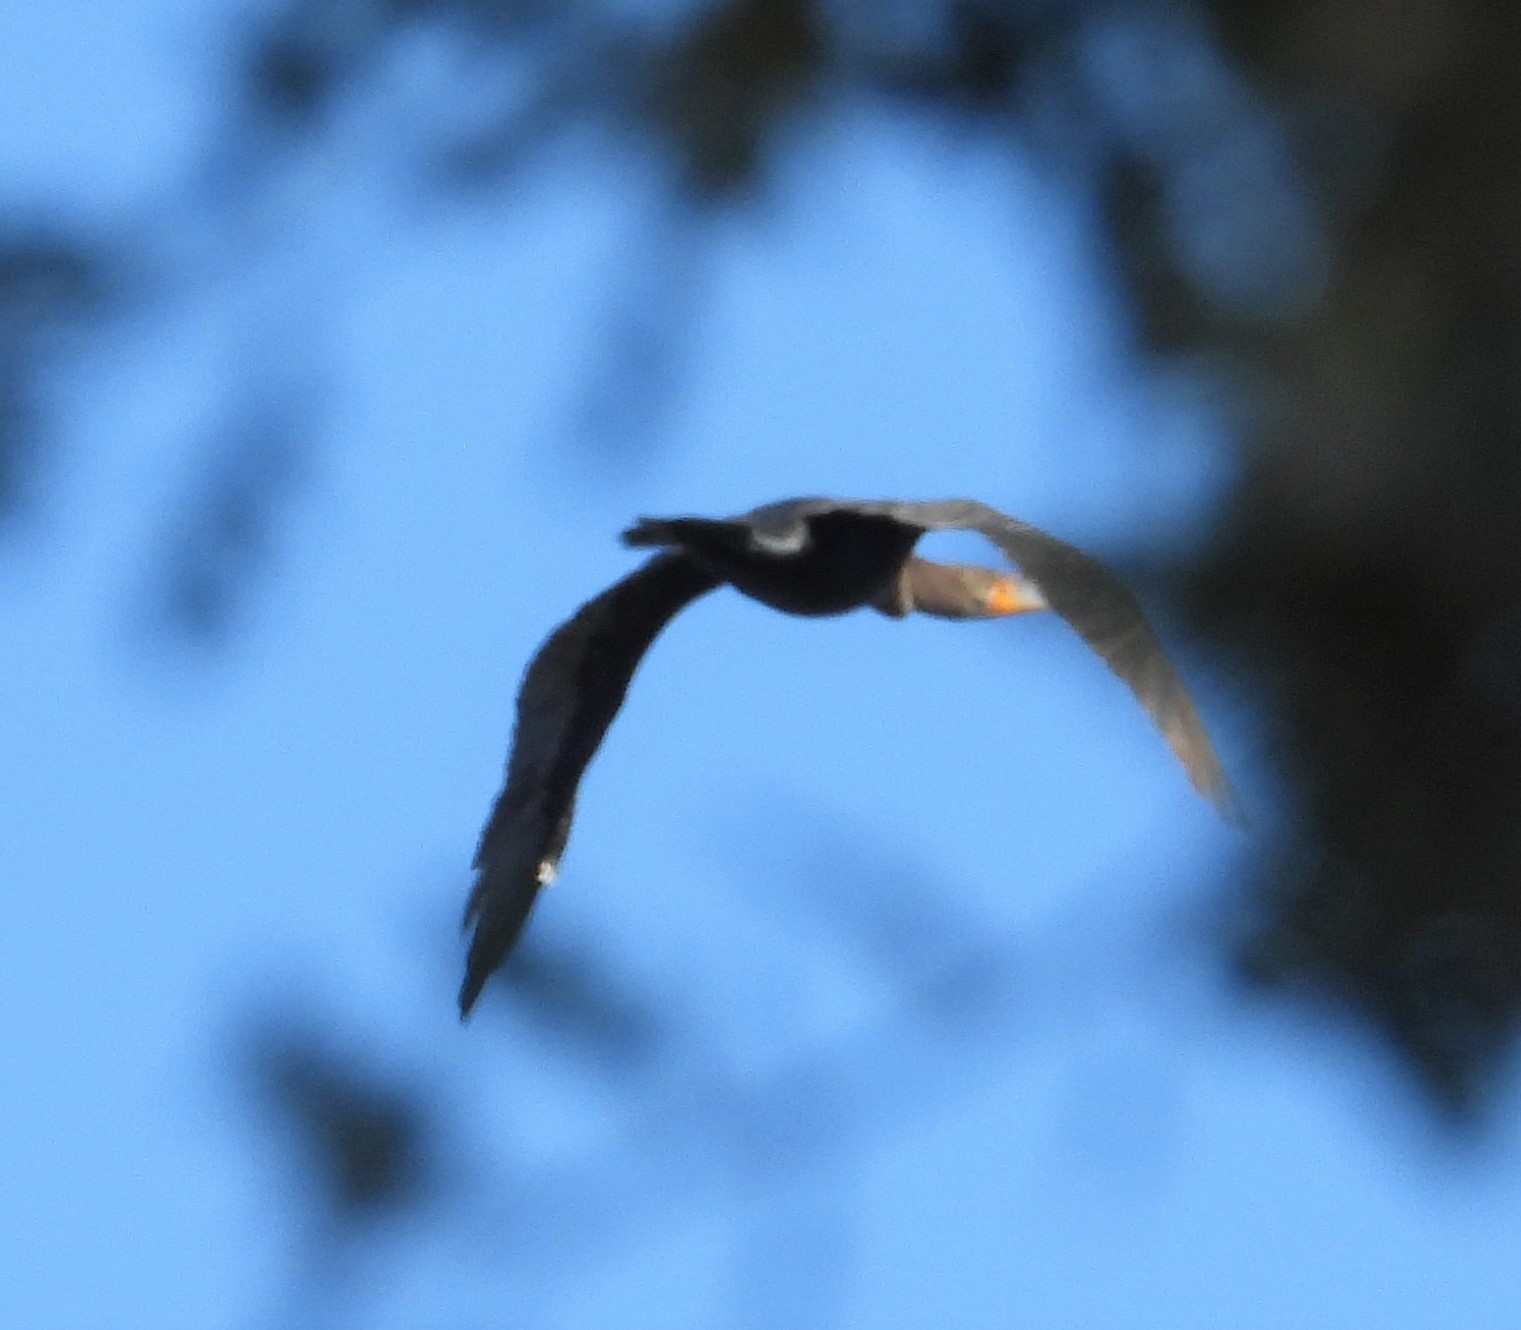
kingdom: Animalia
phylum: Chordata
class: Aves
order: Suliformes
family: Phalacrocoracidae
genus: Phalacrocorax
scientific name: Phalacrocorax auritus
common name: Double-crested cormorant
